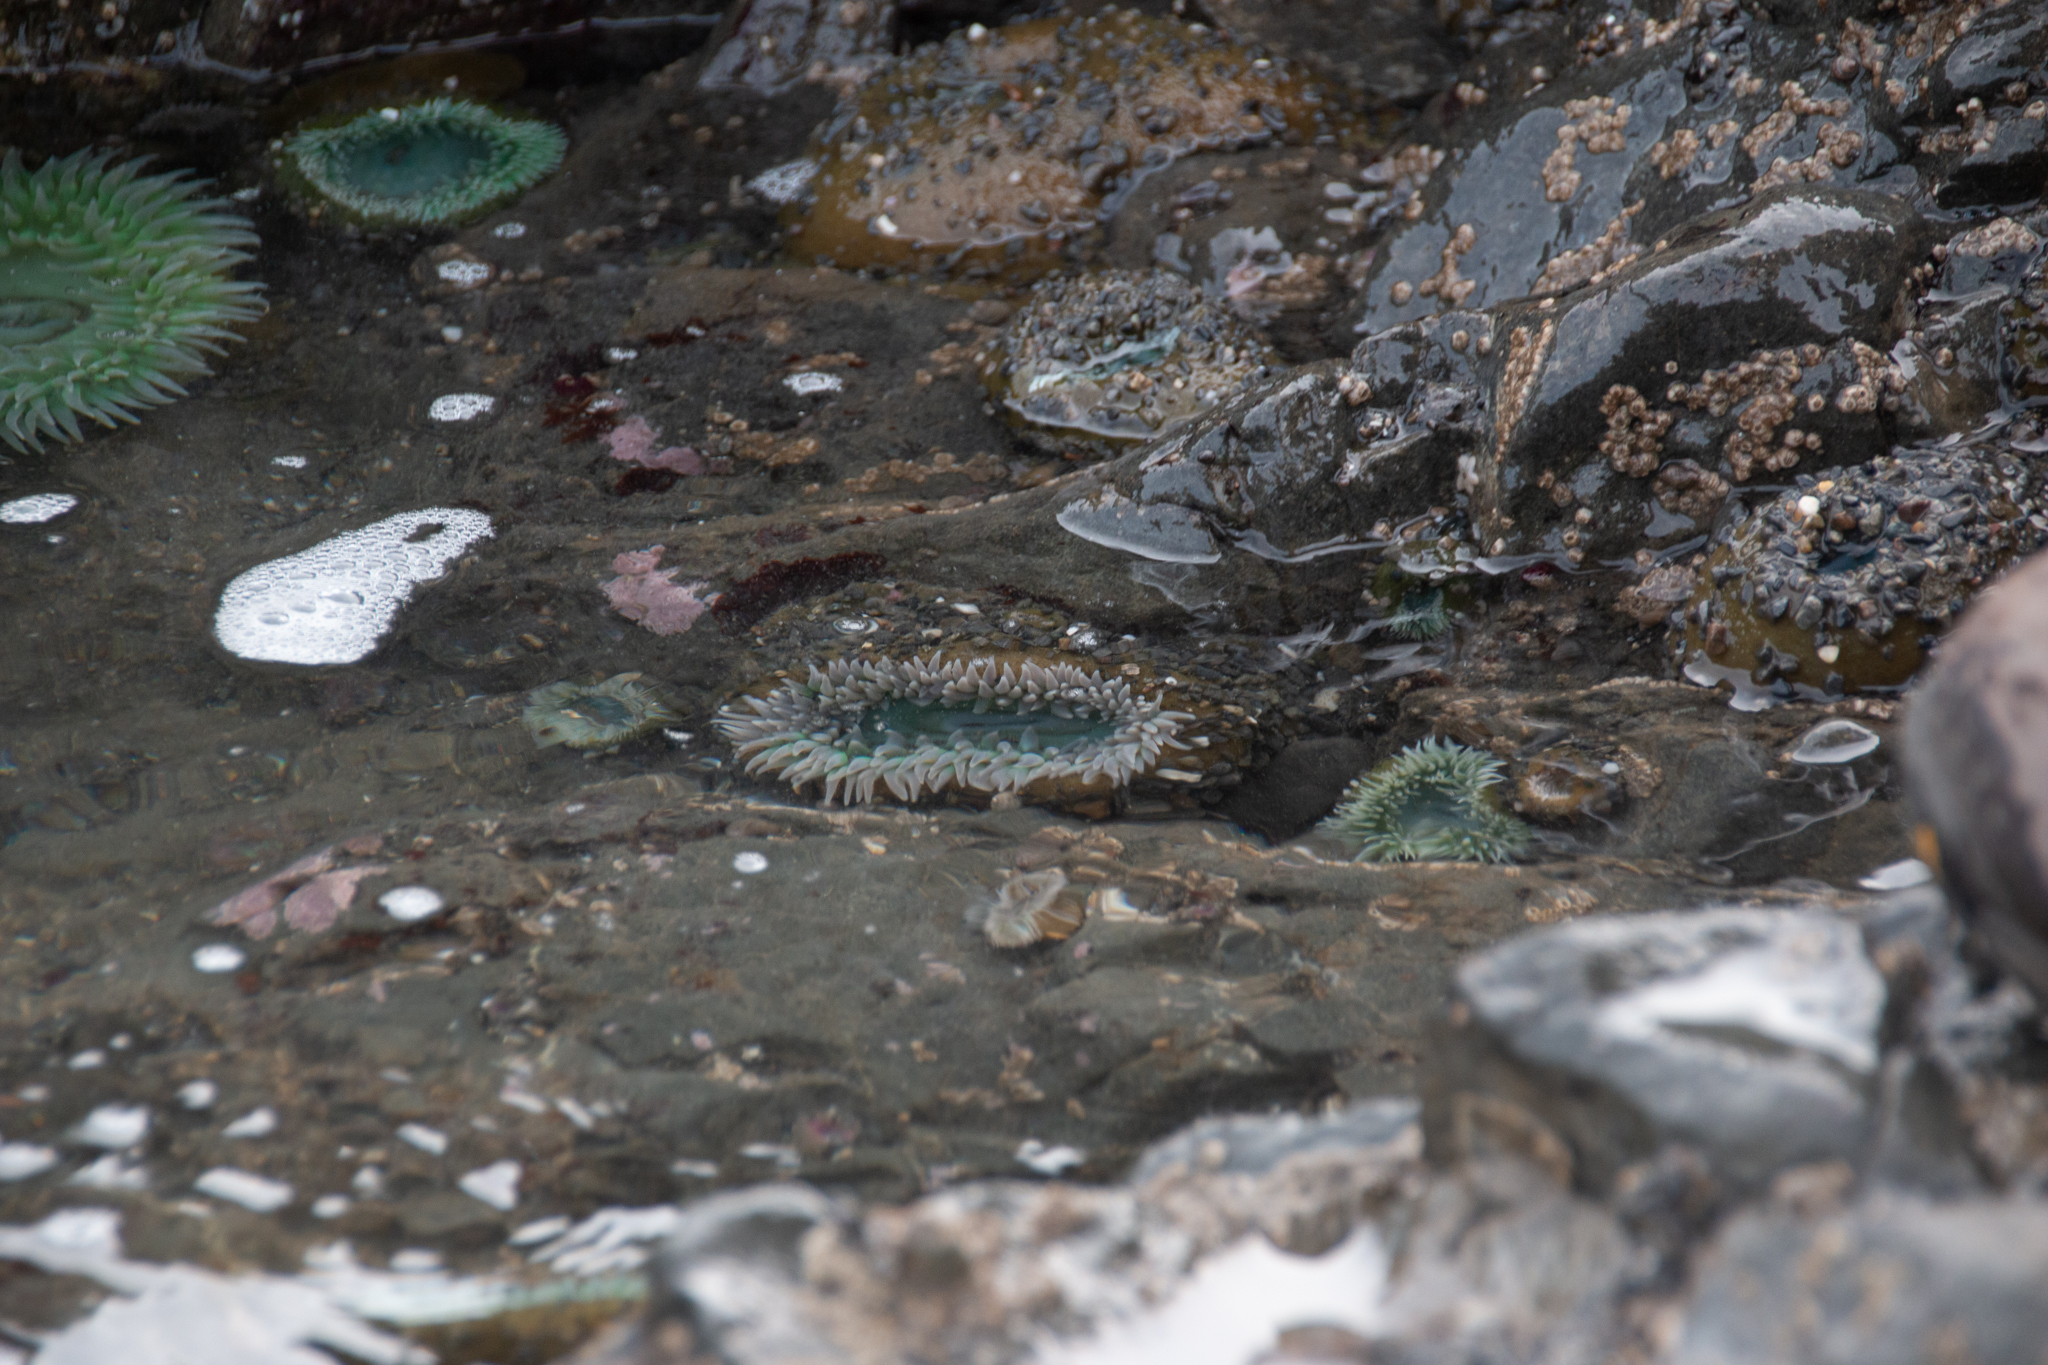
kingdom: Animalia
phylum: Cnidaria
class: Anthozoa
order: Actiniaria
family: Actiniidae
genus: Anthopleura
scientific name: Anthopleura xanthogrammica
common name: Giant green anemone
